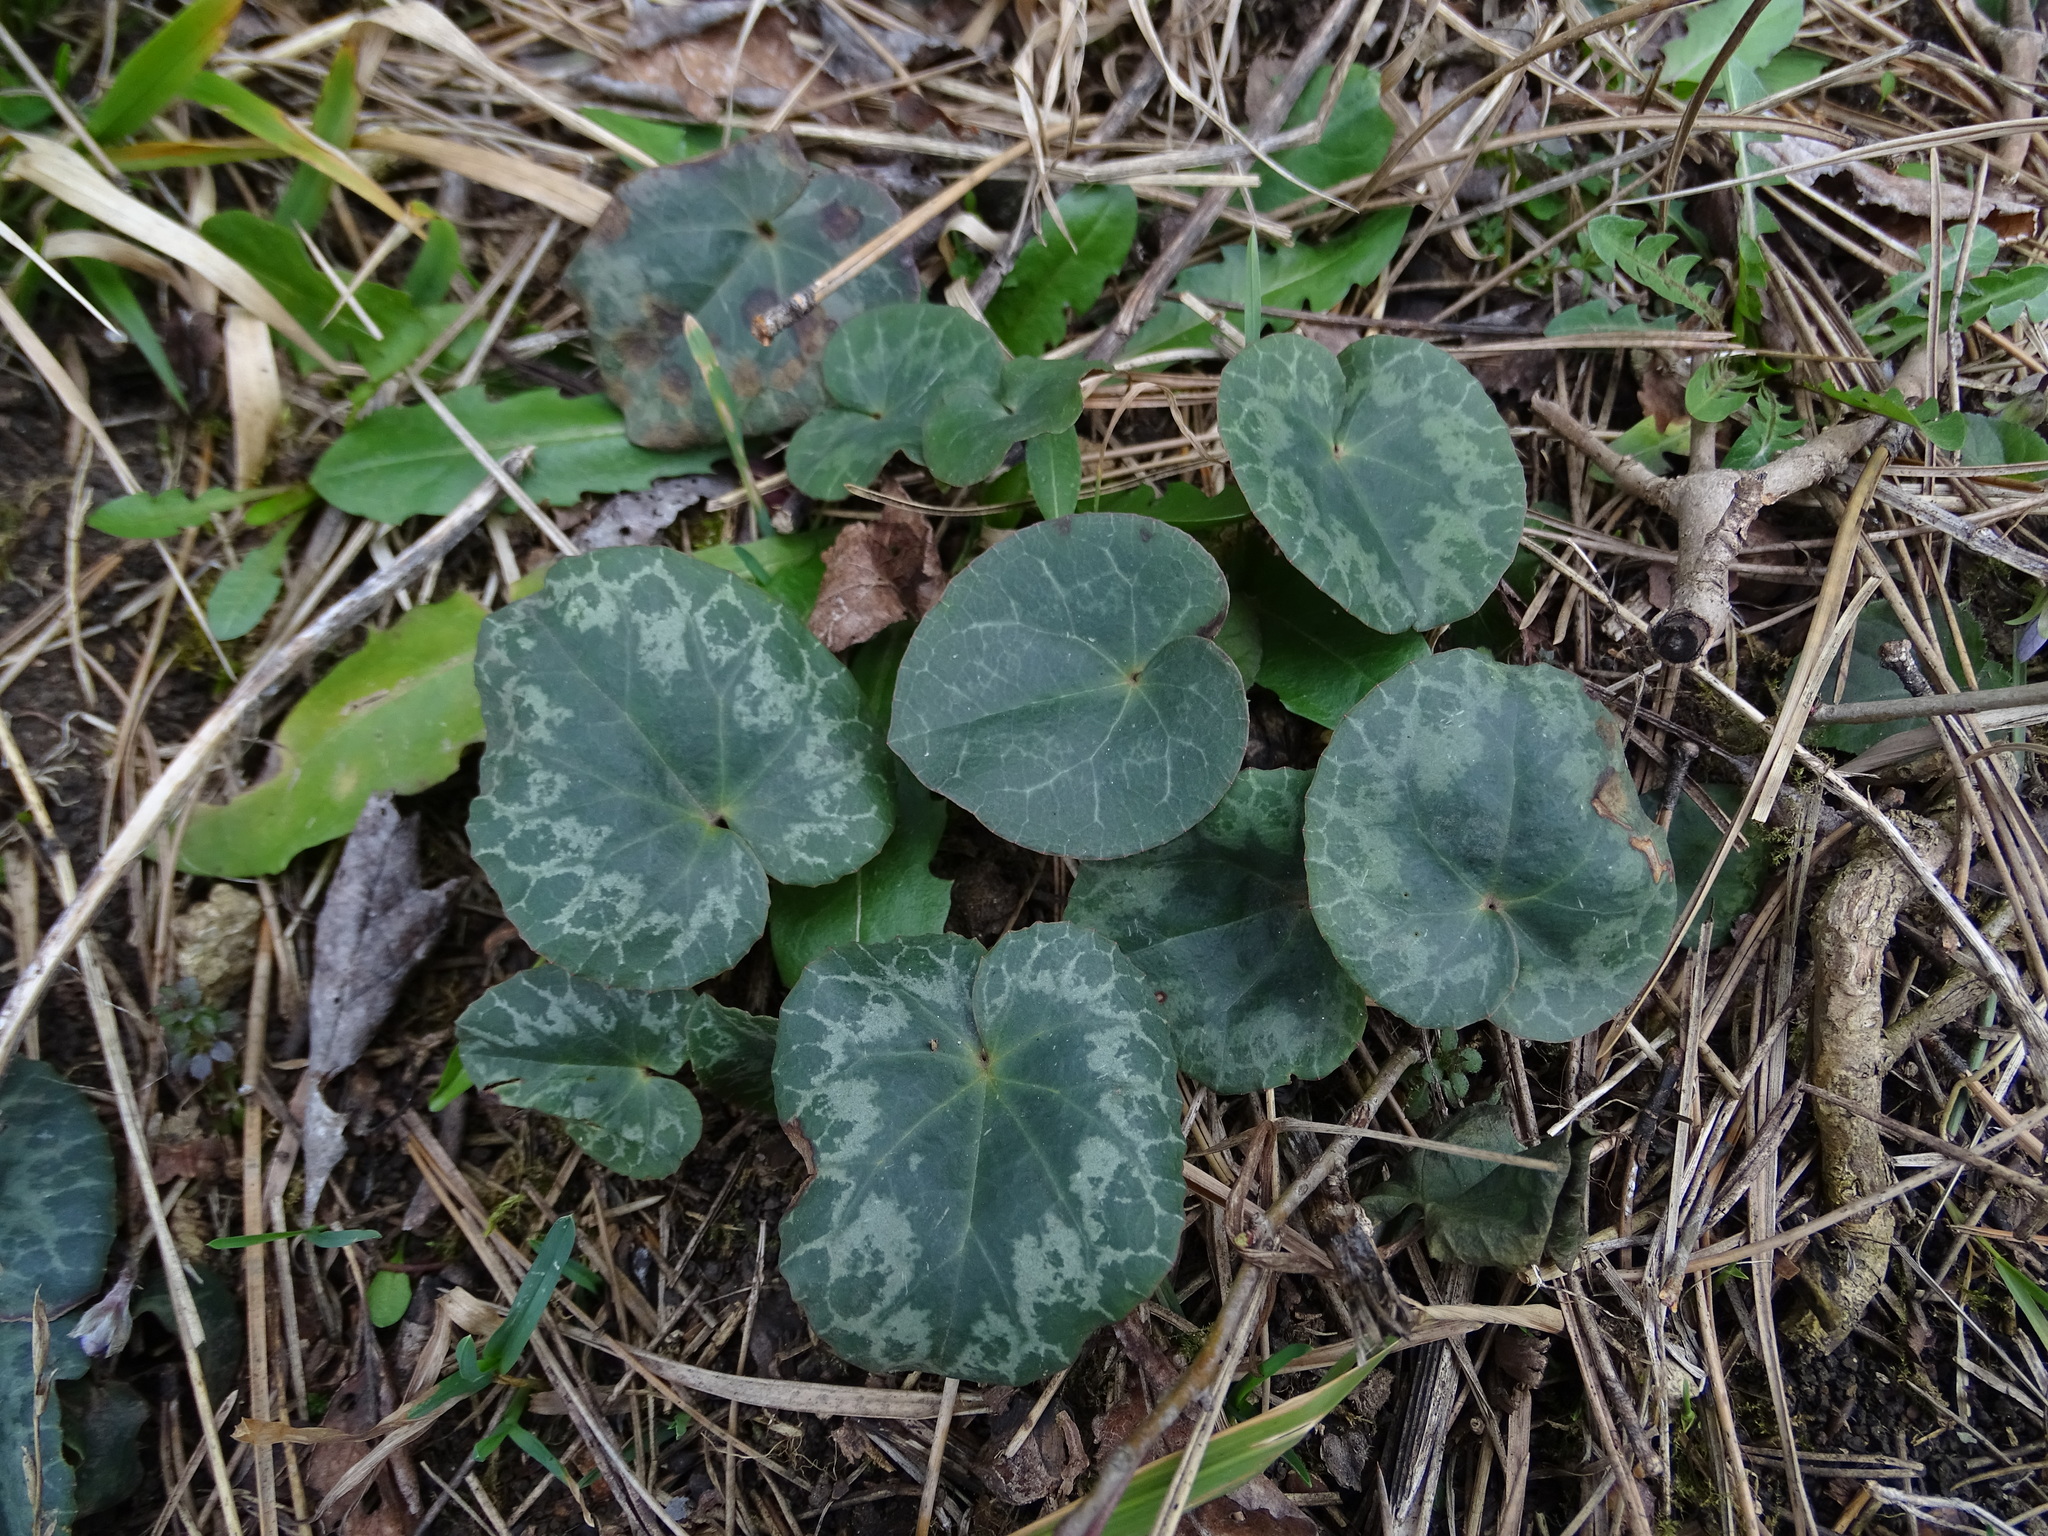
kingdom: Plantae
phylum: Tracheophyta
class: Magnoliopsida
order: Ericales
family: Primulaceae
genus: Cyclamen
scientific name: Cyclamen purpurascens
